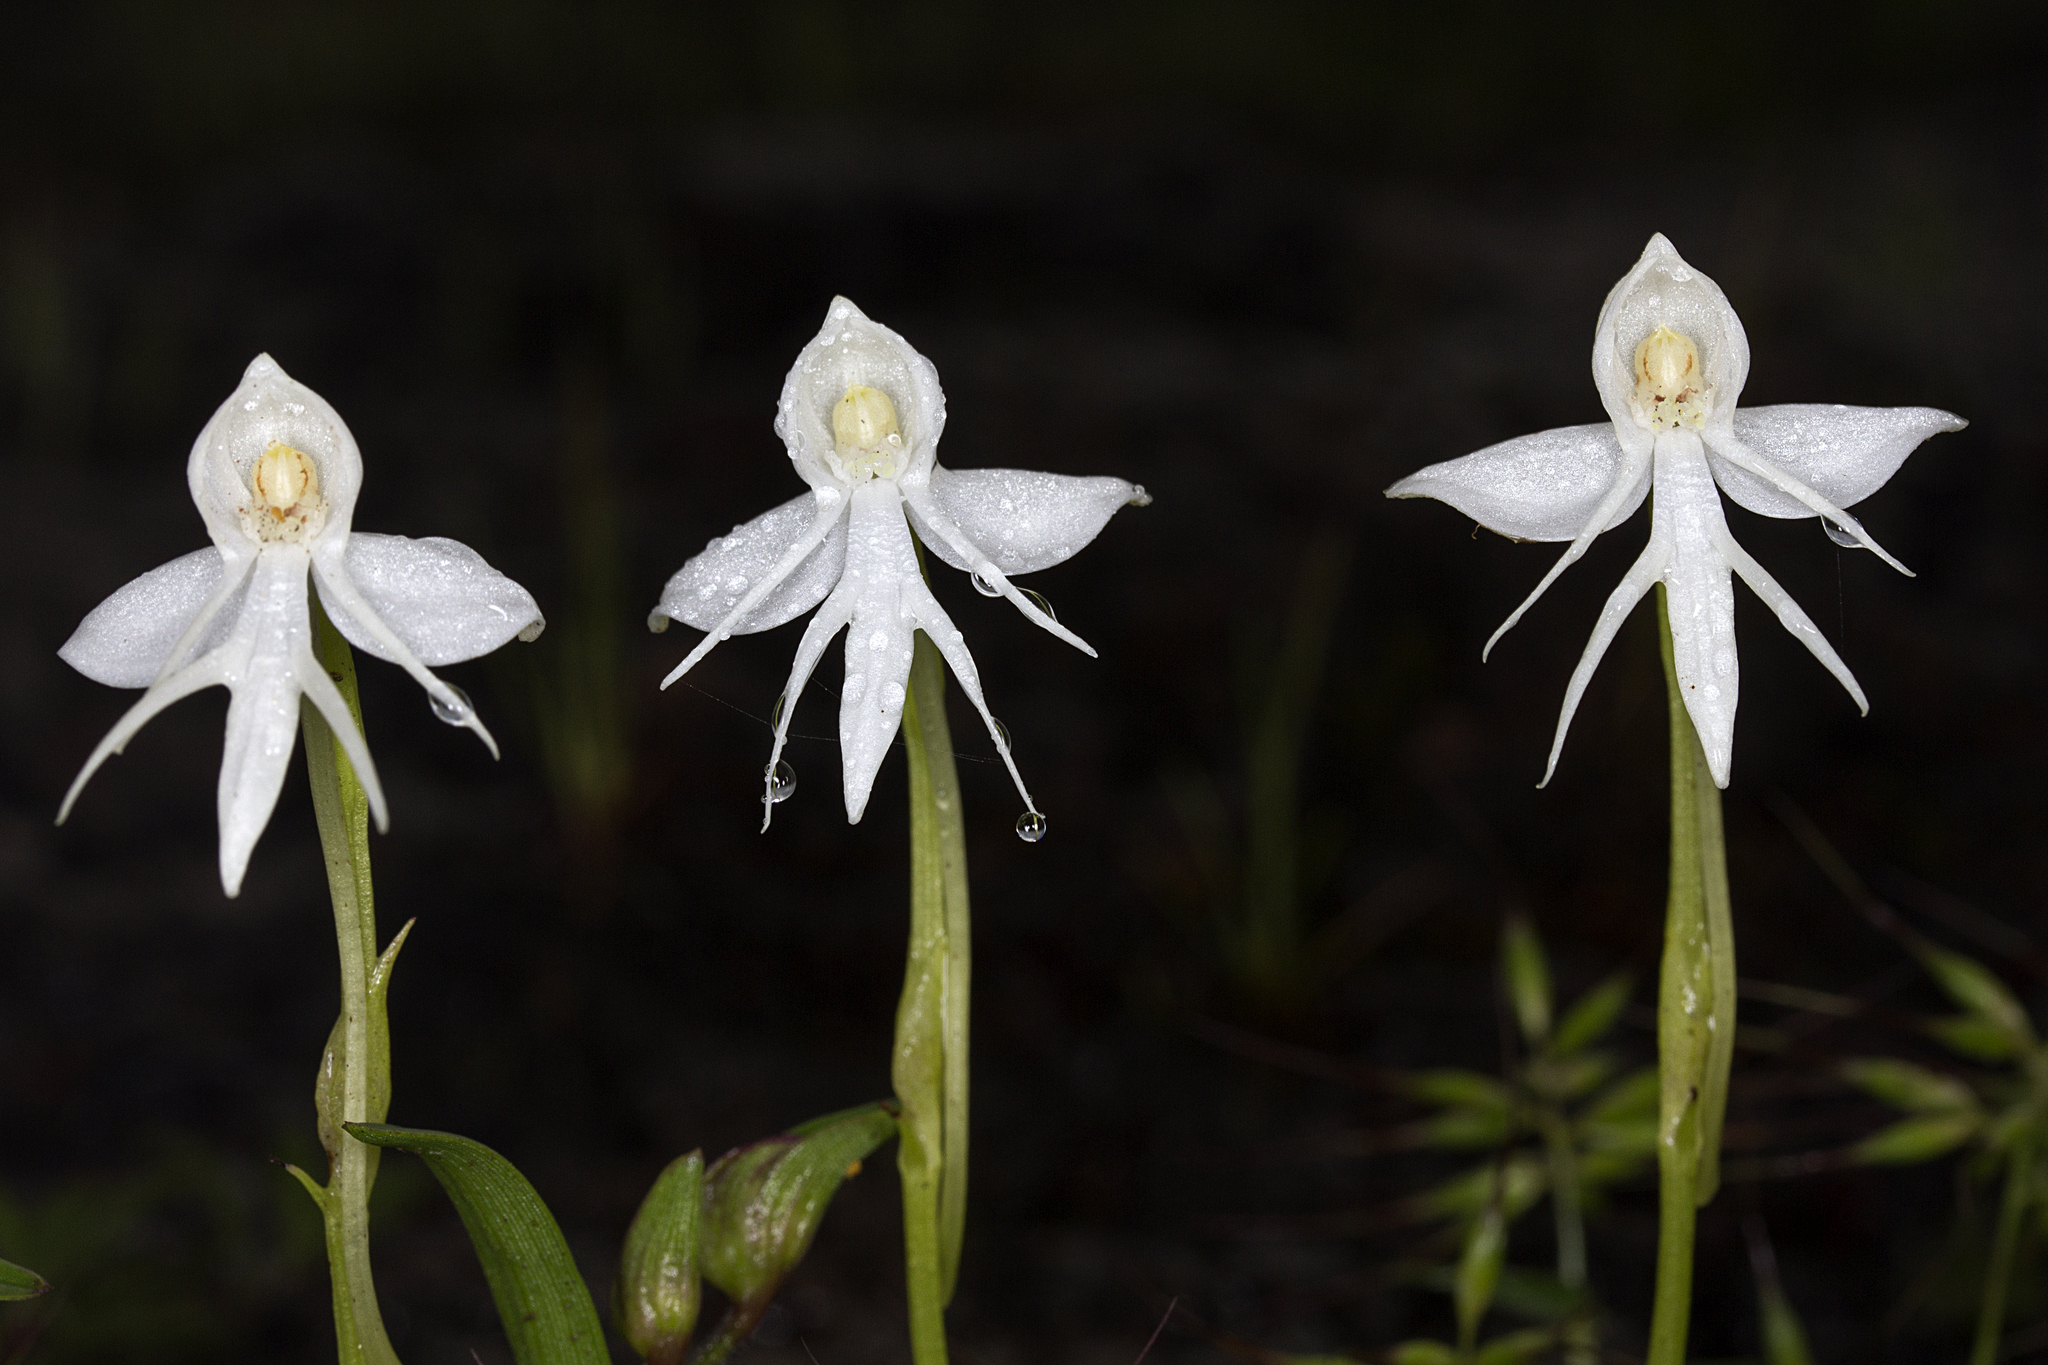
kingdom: Plantae
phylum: Tracheophyta
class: Liliopsida
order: Asparagales
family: Orchidaceae
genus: Habenaria
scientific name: Habenaria rariflora
